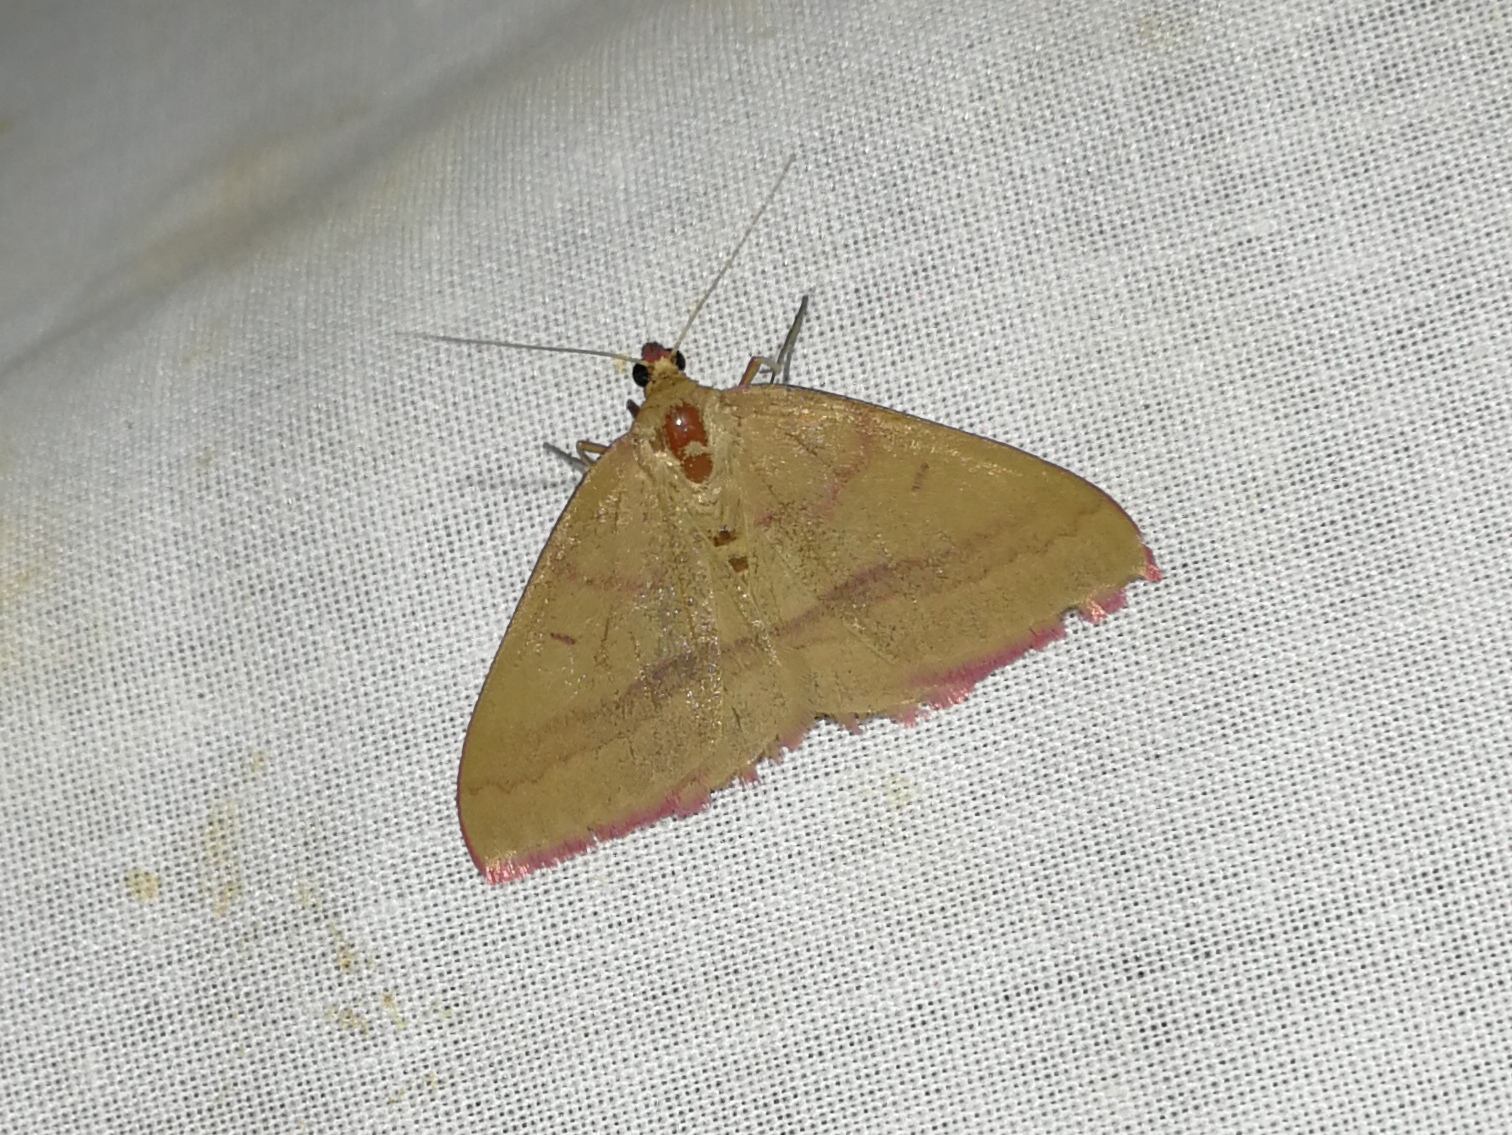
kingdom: Animalia
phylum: Arthropoda
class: Insecta
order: Lepidoptera
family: Geometridae
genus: Rhodostrophia
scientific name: Rhodostrophia calabra
